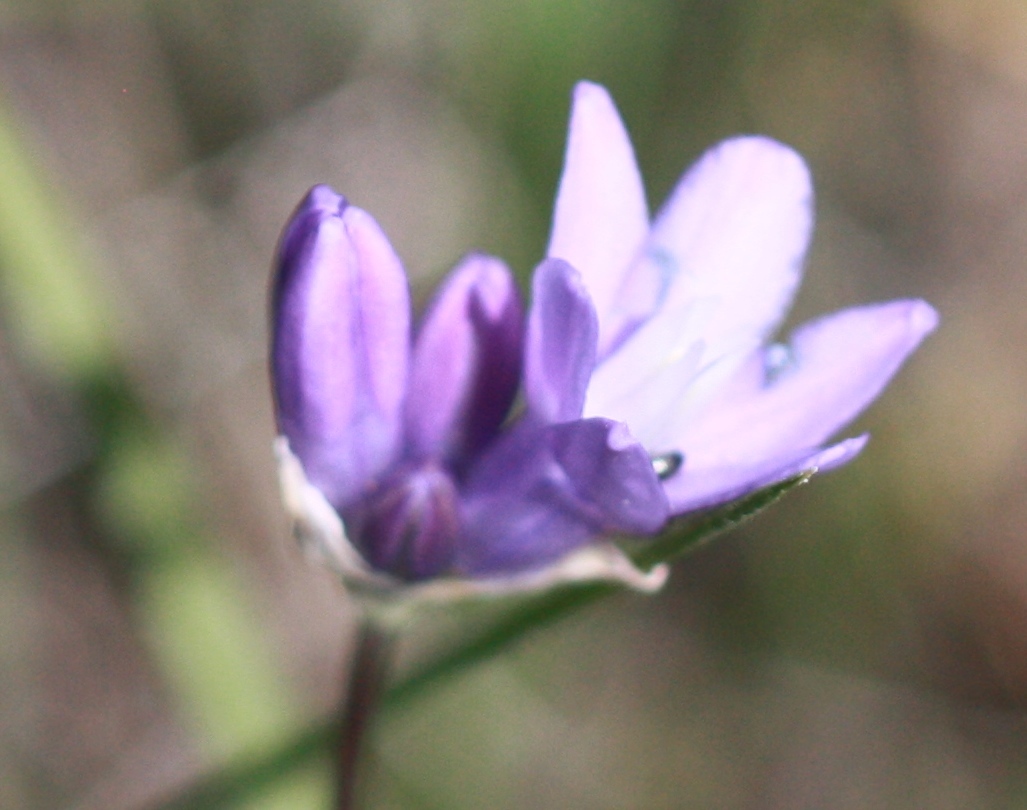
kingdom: Plantae
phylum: Tracheophyta
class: Liliopsida
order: Asparagales
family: Asparagaceae
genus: Dipterostemon
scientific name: Dipterostemon capitatus
